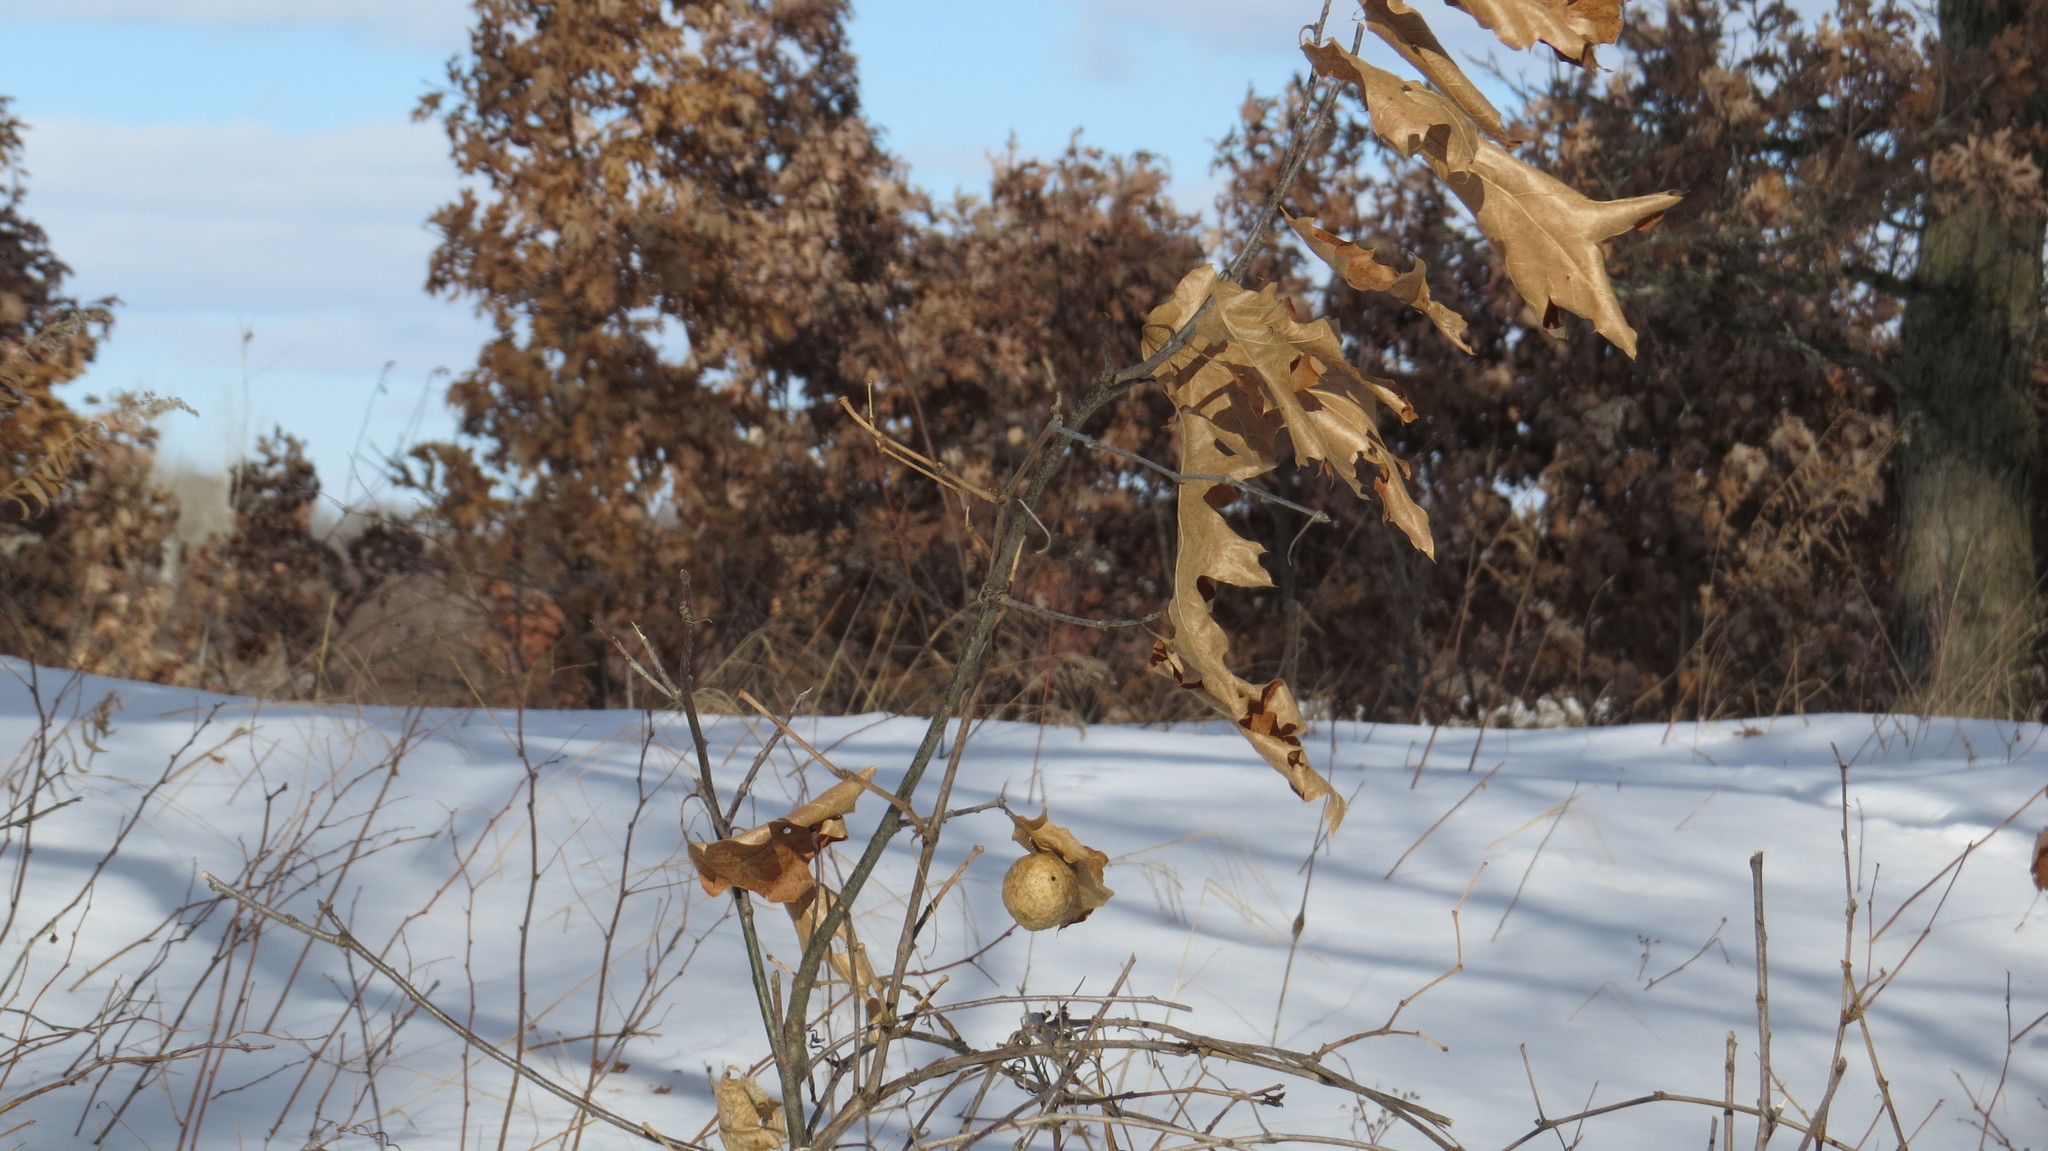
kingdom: Animalia
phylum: Arthropoda
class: Insecta
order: Hymenoptera
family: Cynipidae
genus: Amphibolips
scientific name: Amphibolips
